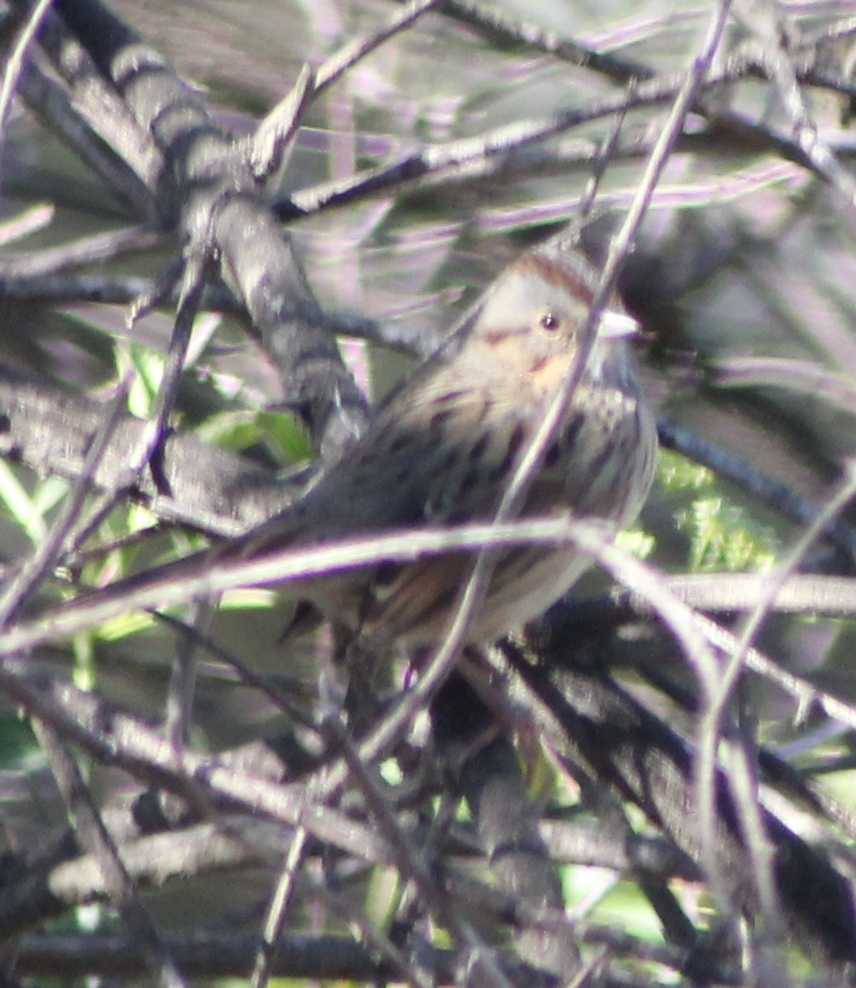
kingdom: Animalia
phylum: Chordata
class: Aves
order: Passeriformes
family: Passerellidae
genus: Melospiza
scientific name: Melospiza lincolnii
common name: Lincoln's sparrow
